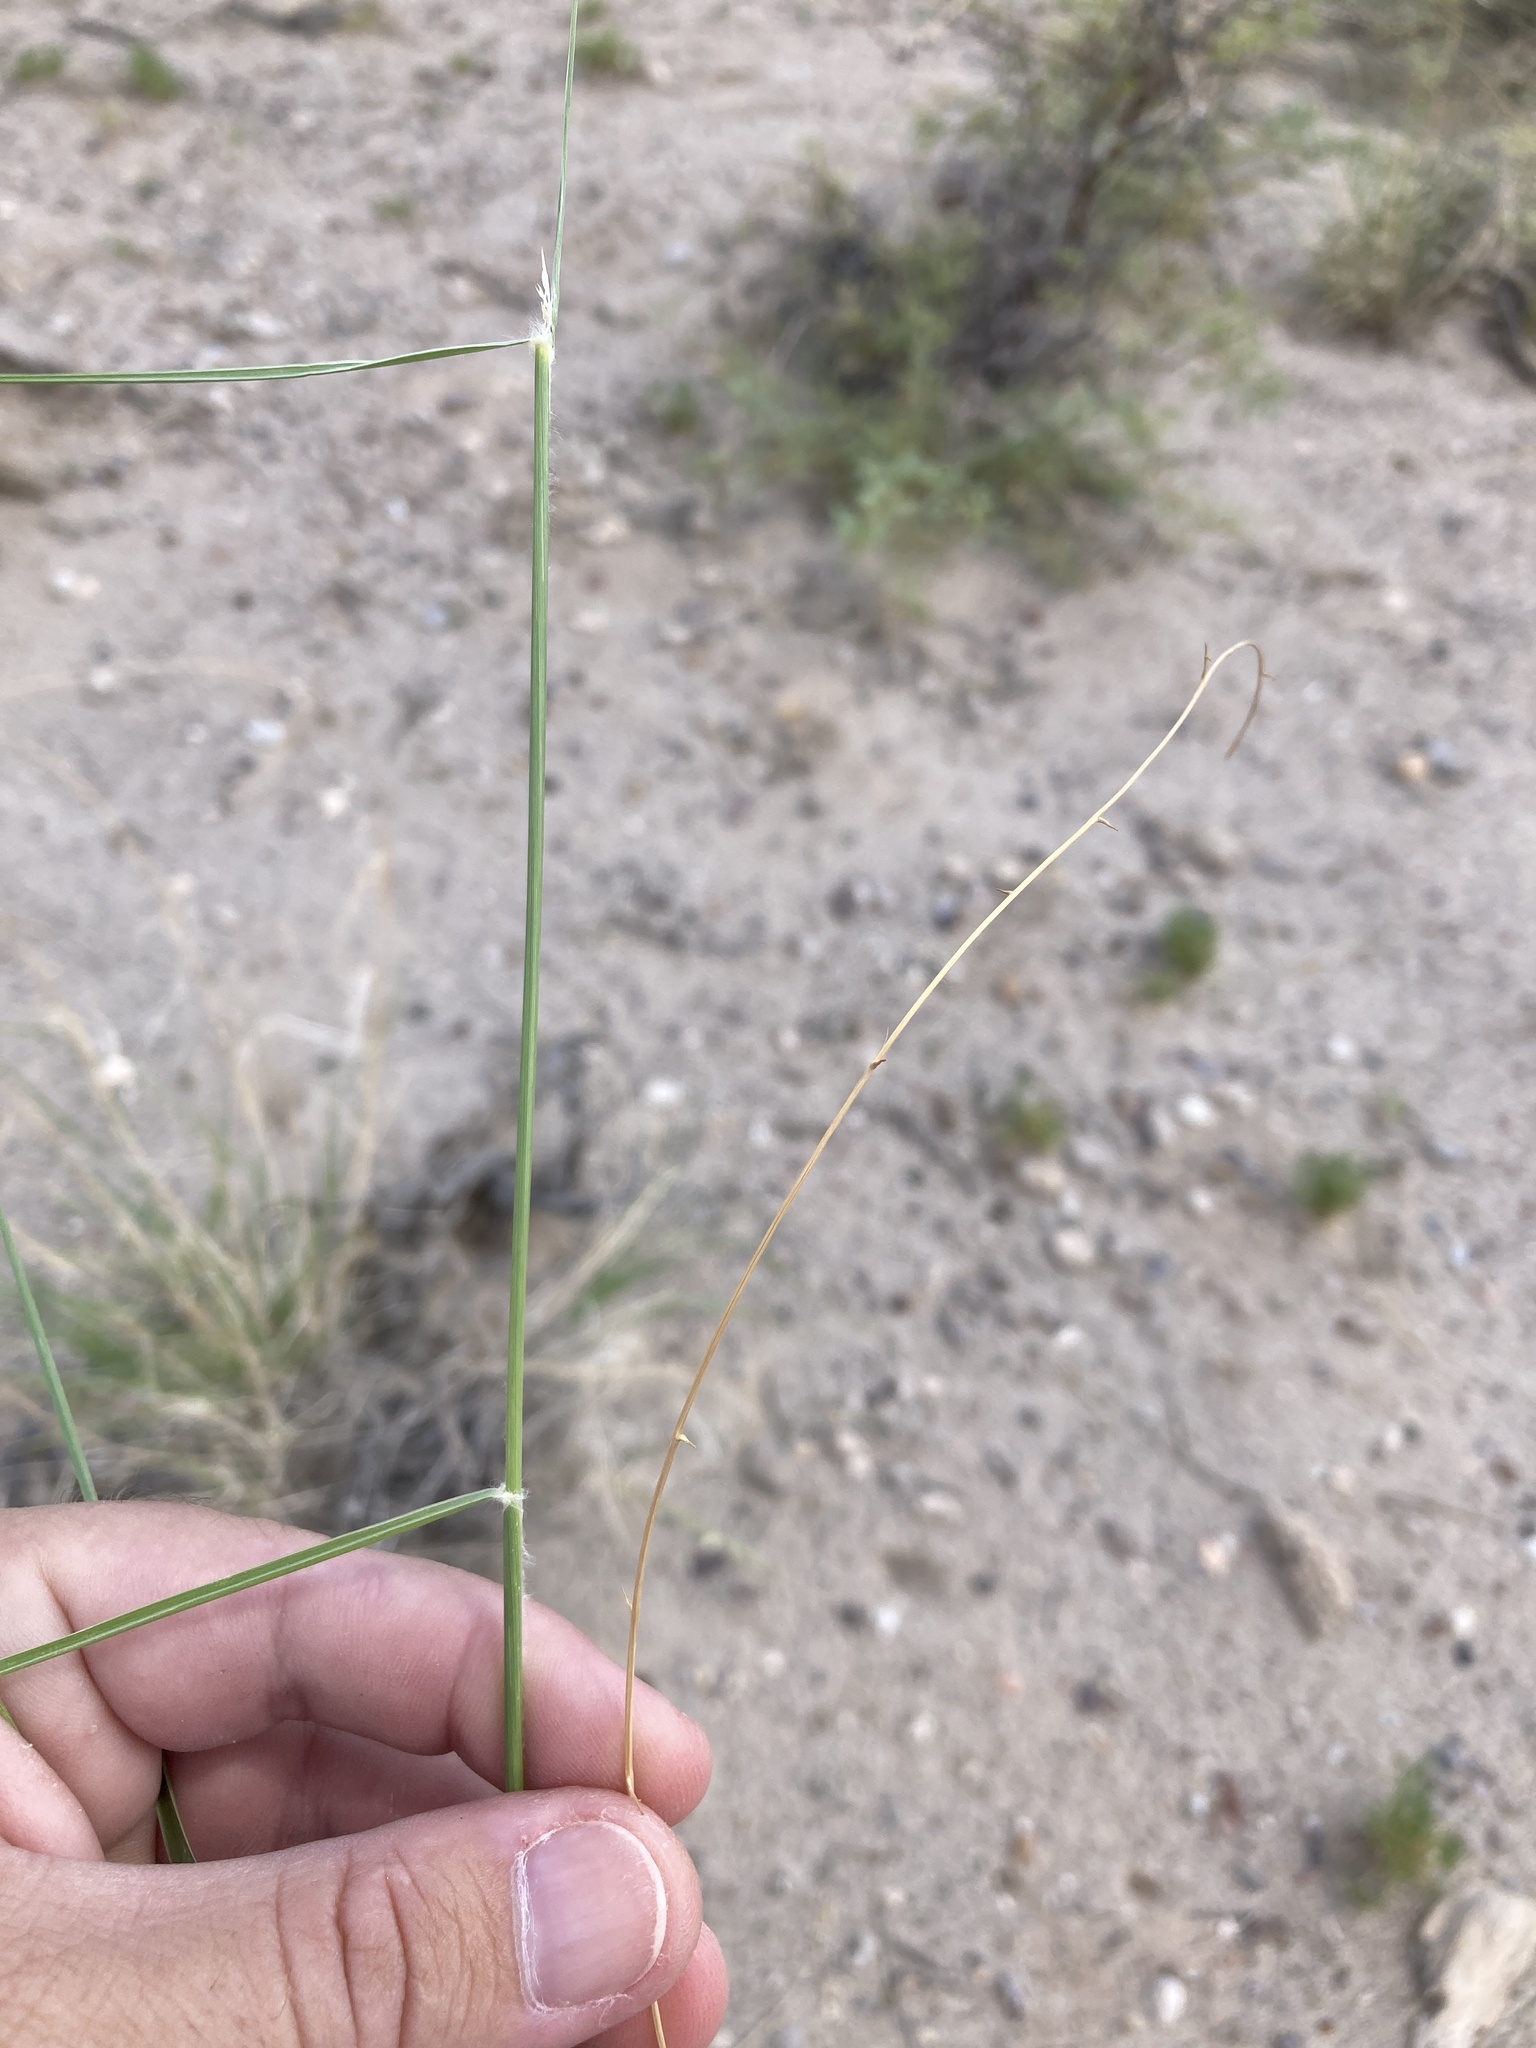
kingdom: Plantae
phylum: Tracheophyta
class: Liliopsida
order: Poales
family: Poaceae
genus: Sporobolus
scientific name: Sporobolus flexuosus
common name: Mesa dropseed
